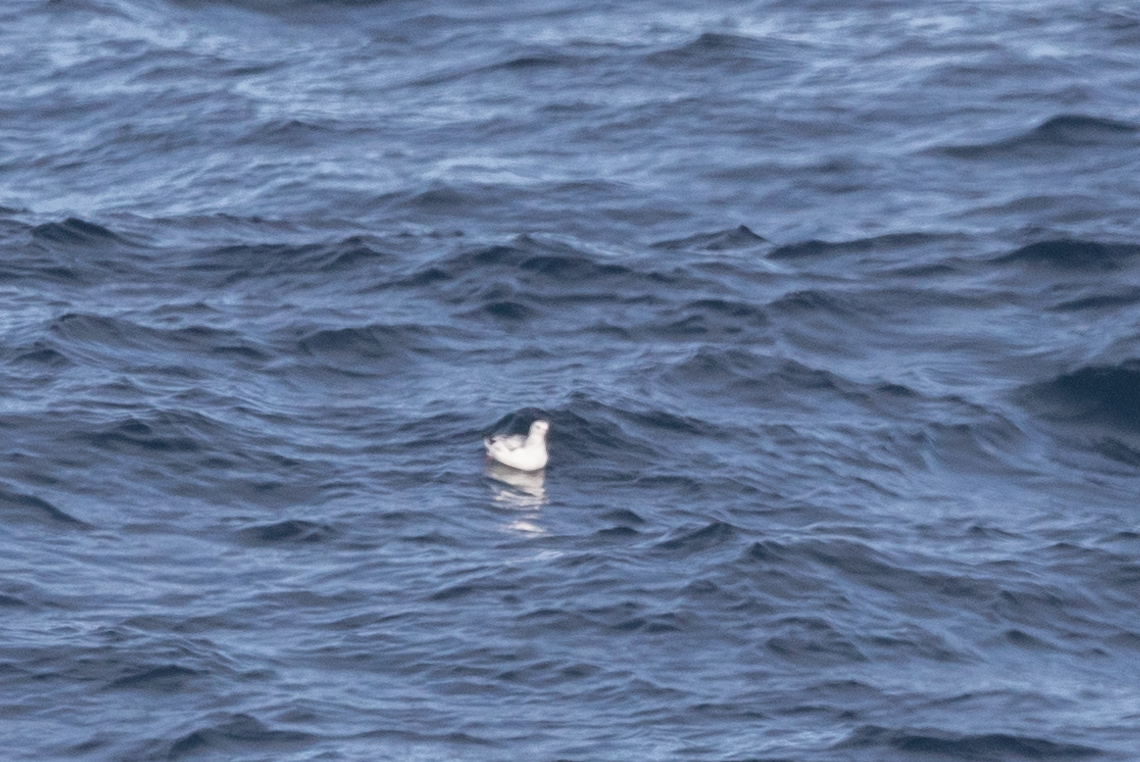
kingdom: Animalia
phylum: Chordata
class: Aves
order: Charadriiformes
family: Alcidae
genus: Cepphus
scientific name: Cepphus grylle
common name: Black guillemot
